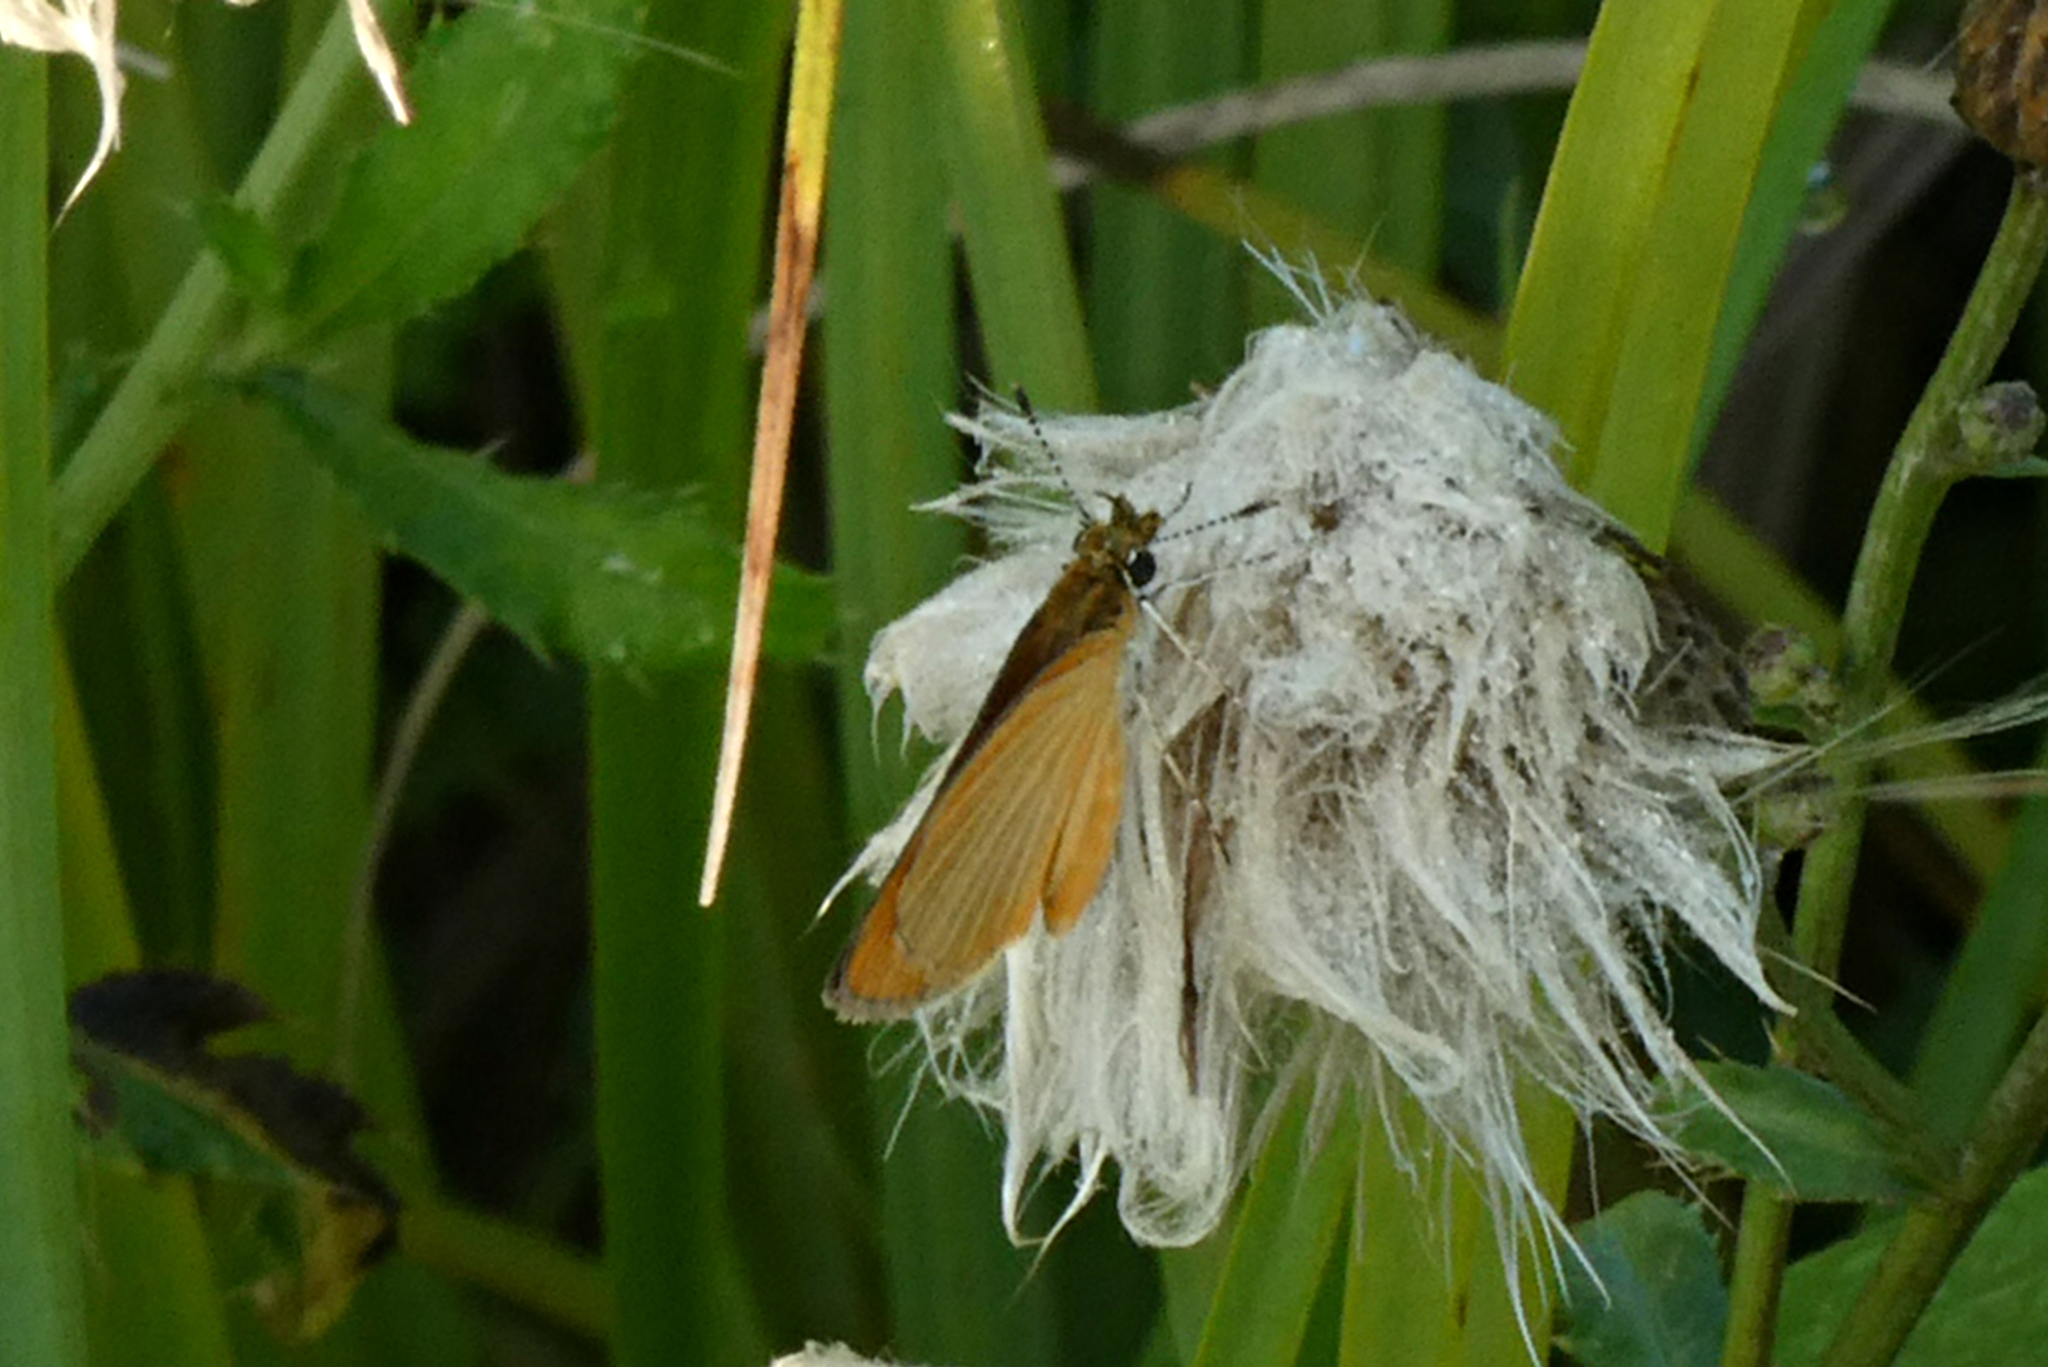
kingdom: Animalia
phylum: Arthropoda
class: Insecta
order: Lepidoptera
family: Hesperiidae
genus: Ancyloxypha
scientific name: Ancyloxypha numitor
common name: Least skipper
